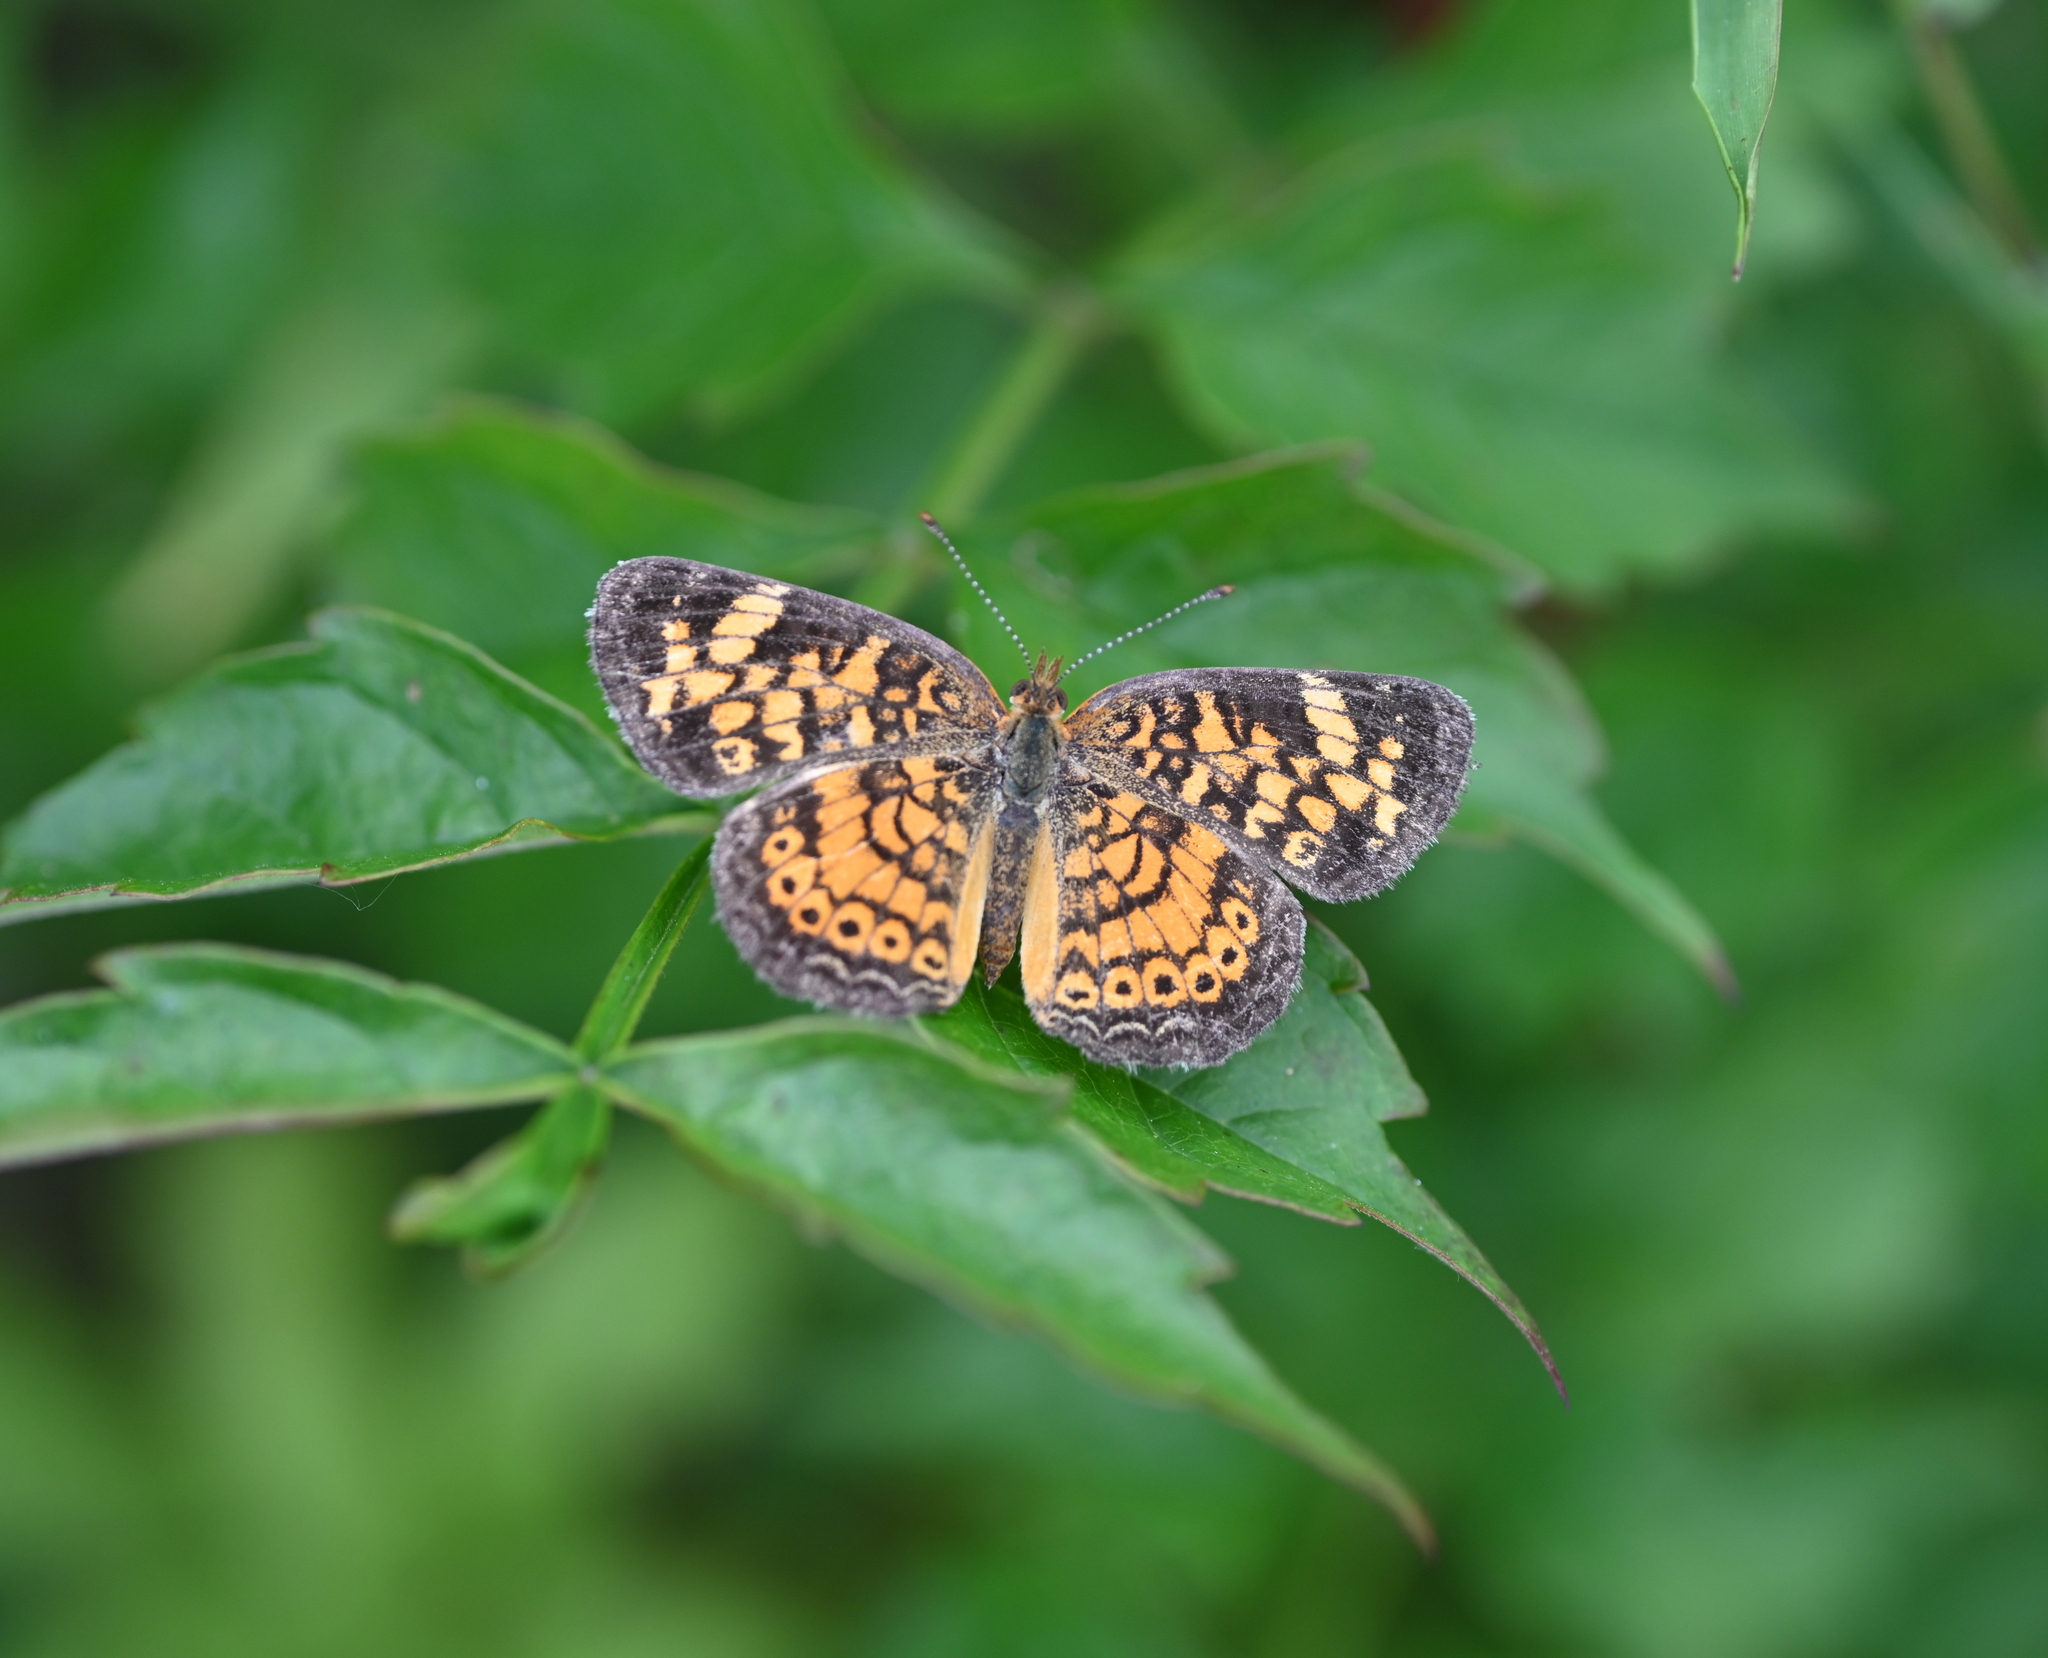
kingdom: Animalia
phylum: Arthropoda
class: Insecta
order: Lepidoptera
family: Nymphalidae
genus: Phyciodes
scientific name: Phyciodes tharos
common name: Pearl crescent
